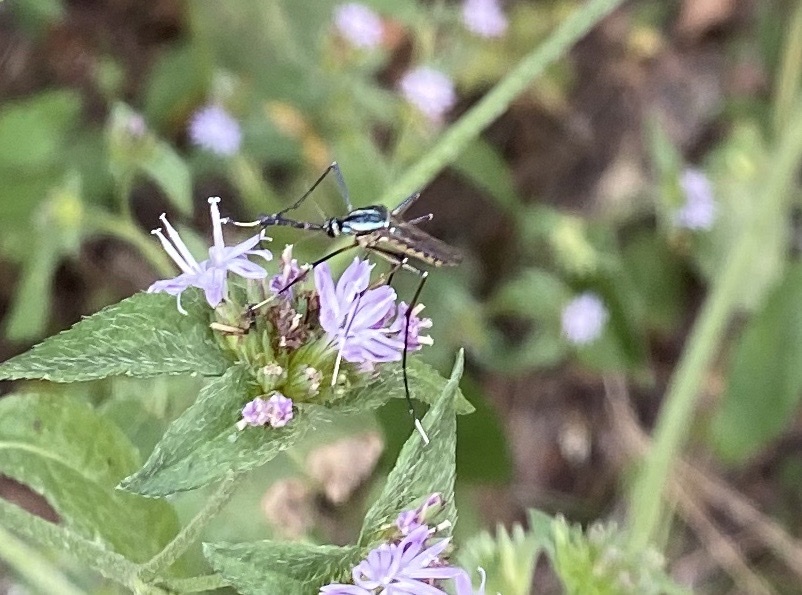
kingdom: Animalia
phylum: Arthropoda
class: Insecta
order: Diptera
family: Culicidae
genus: Toxorhynchites
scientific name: Toxorhynchites rutilus
